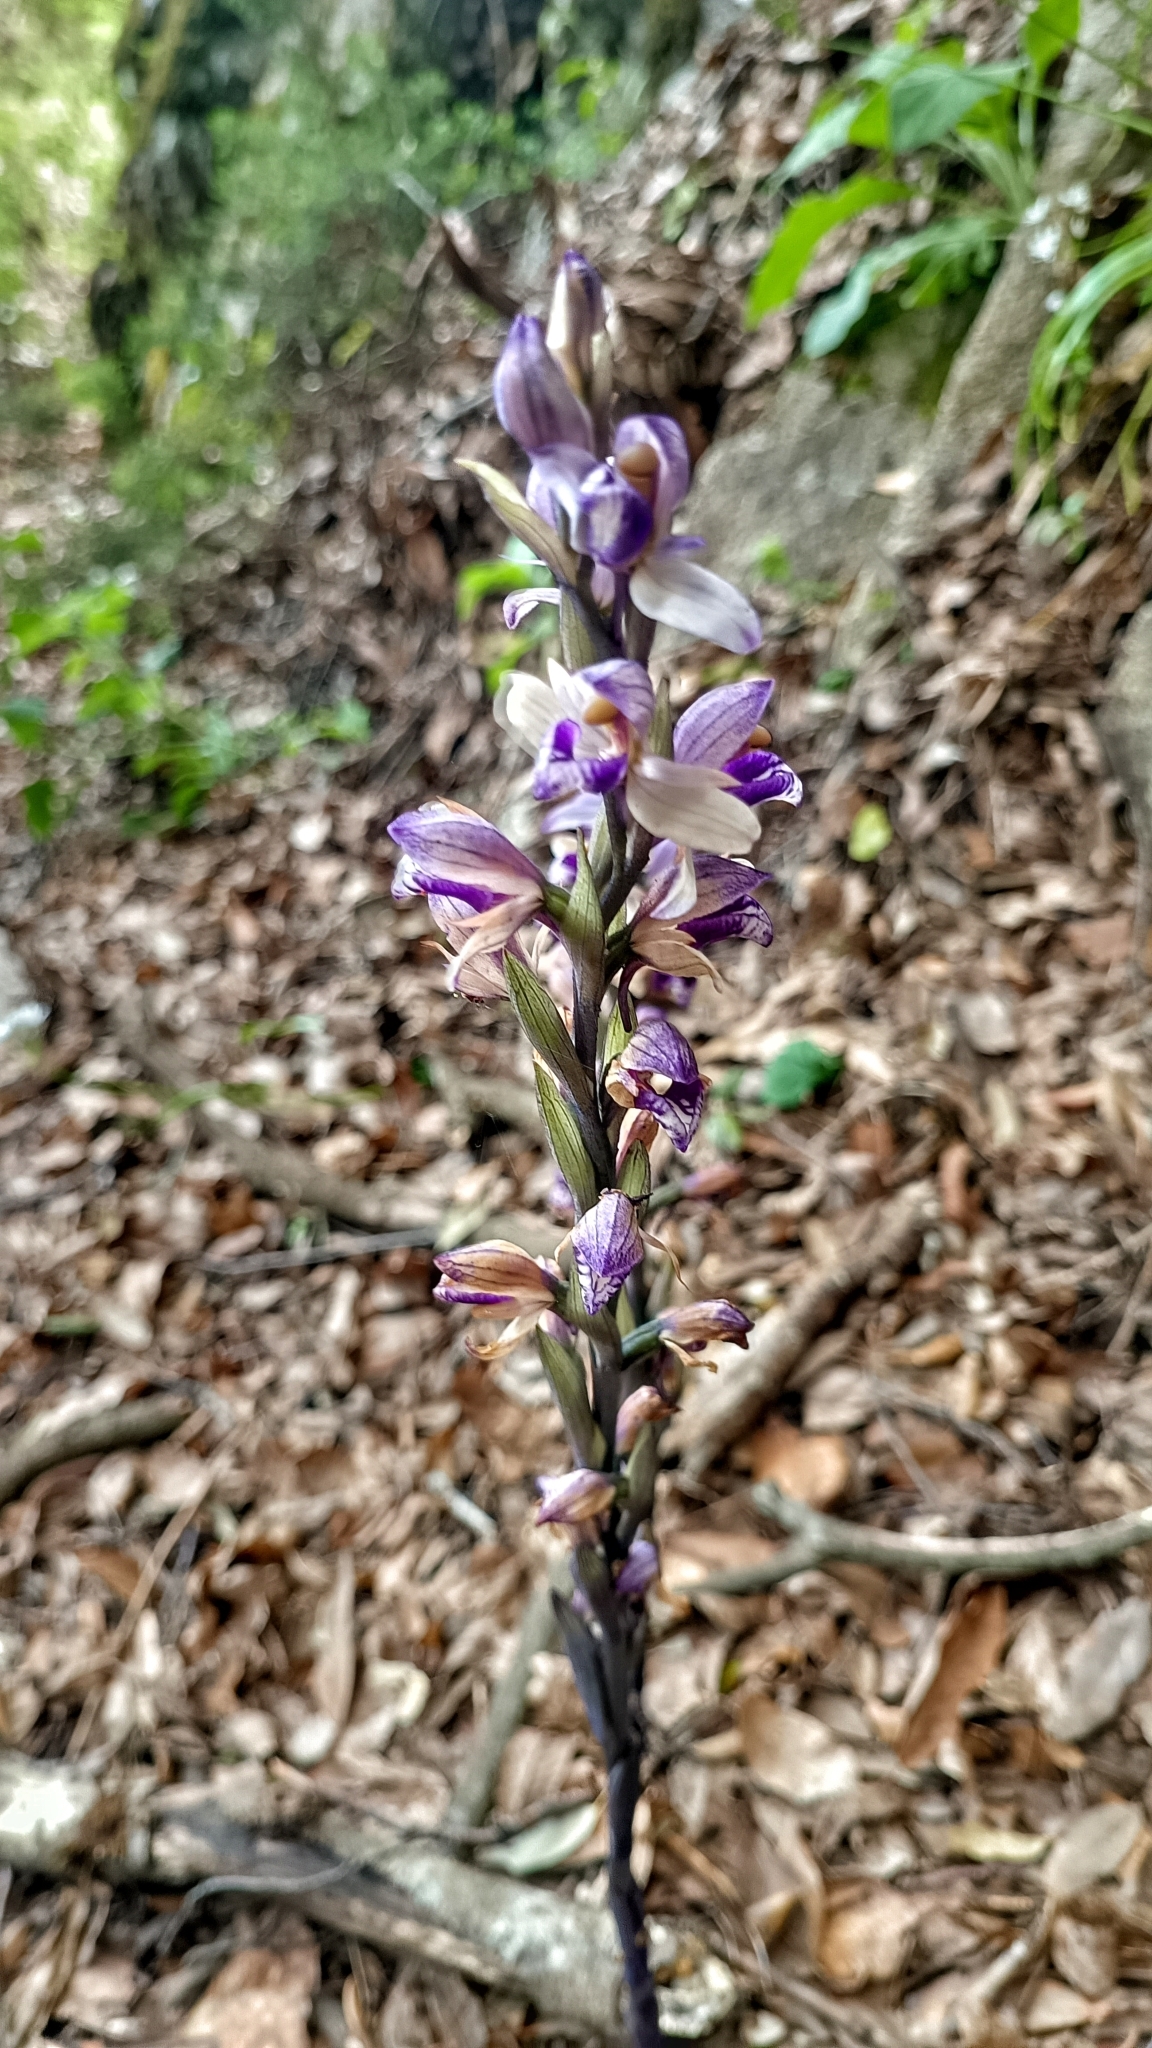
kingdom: Plantae
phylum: Tracheophyta
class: Liliopsida
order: Asparagales
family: Orchidaceae
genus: Limodorum
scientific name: Limodorum abortivum
